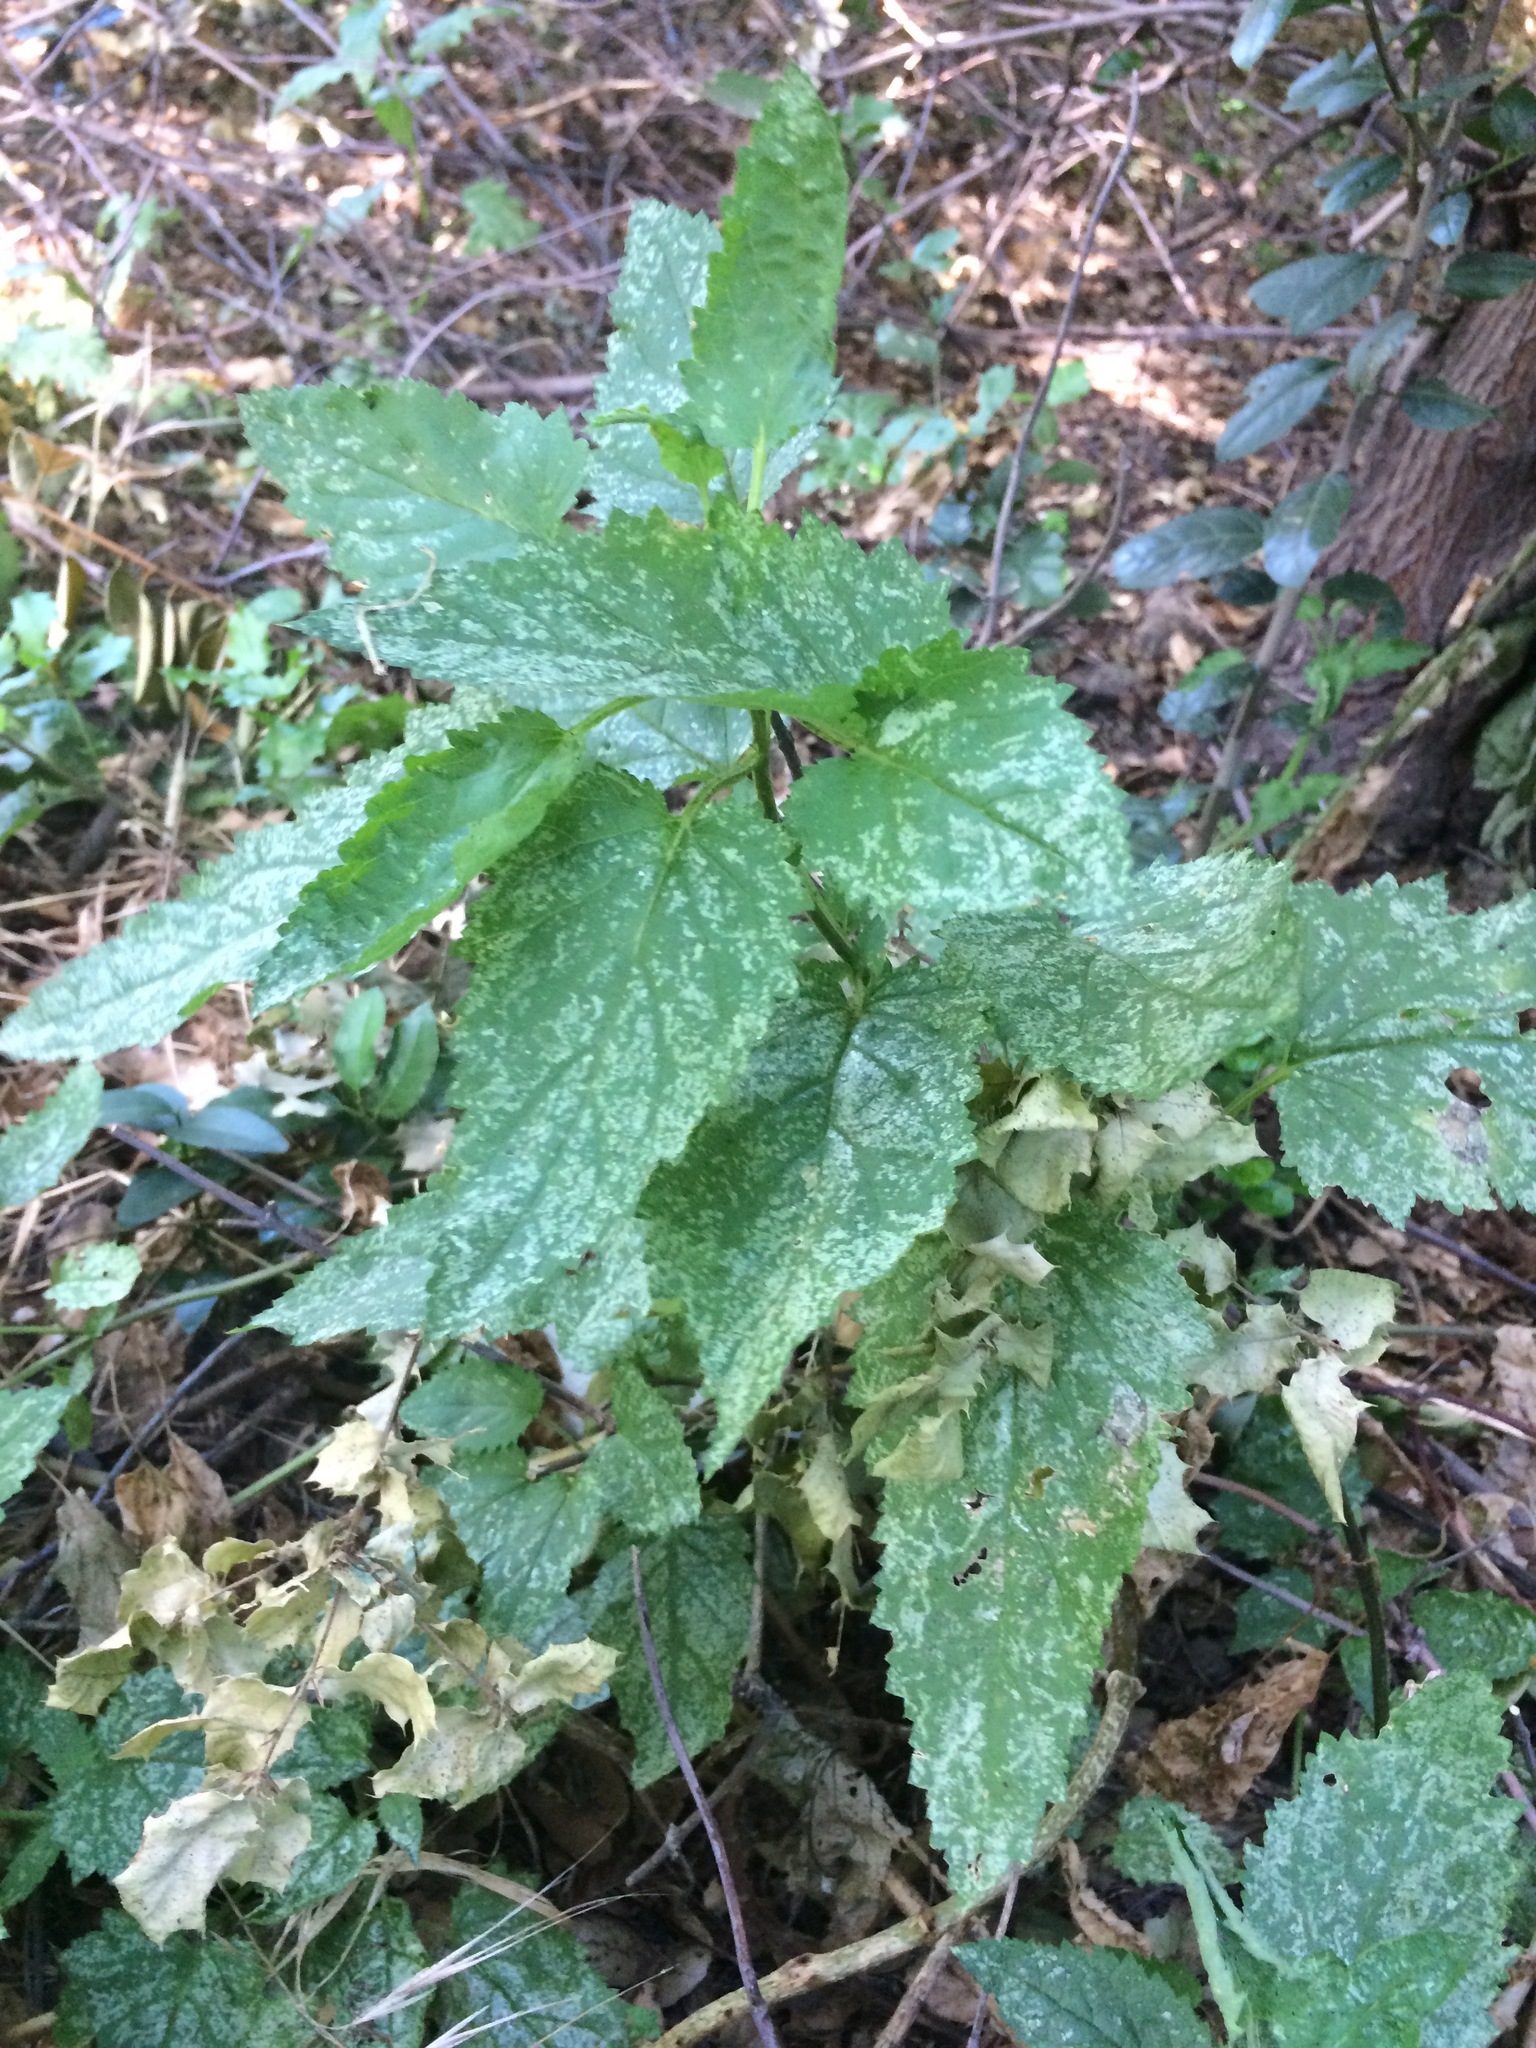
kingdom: Plantae
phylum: Tracheophyta
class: Magnoliopsida
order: Lamiales
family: Scrophulariaceae
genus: Scrophularia
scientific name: Scrophularia californica
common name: California figwort
